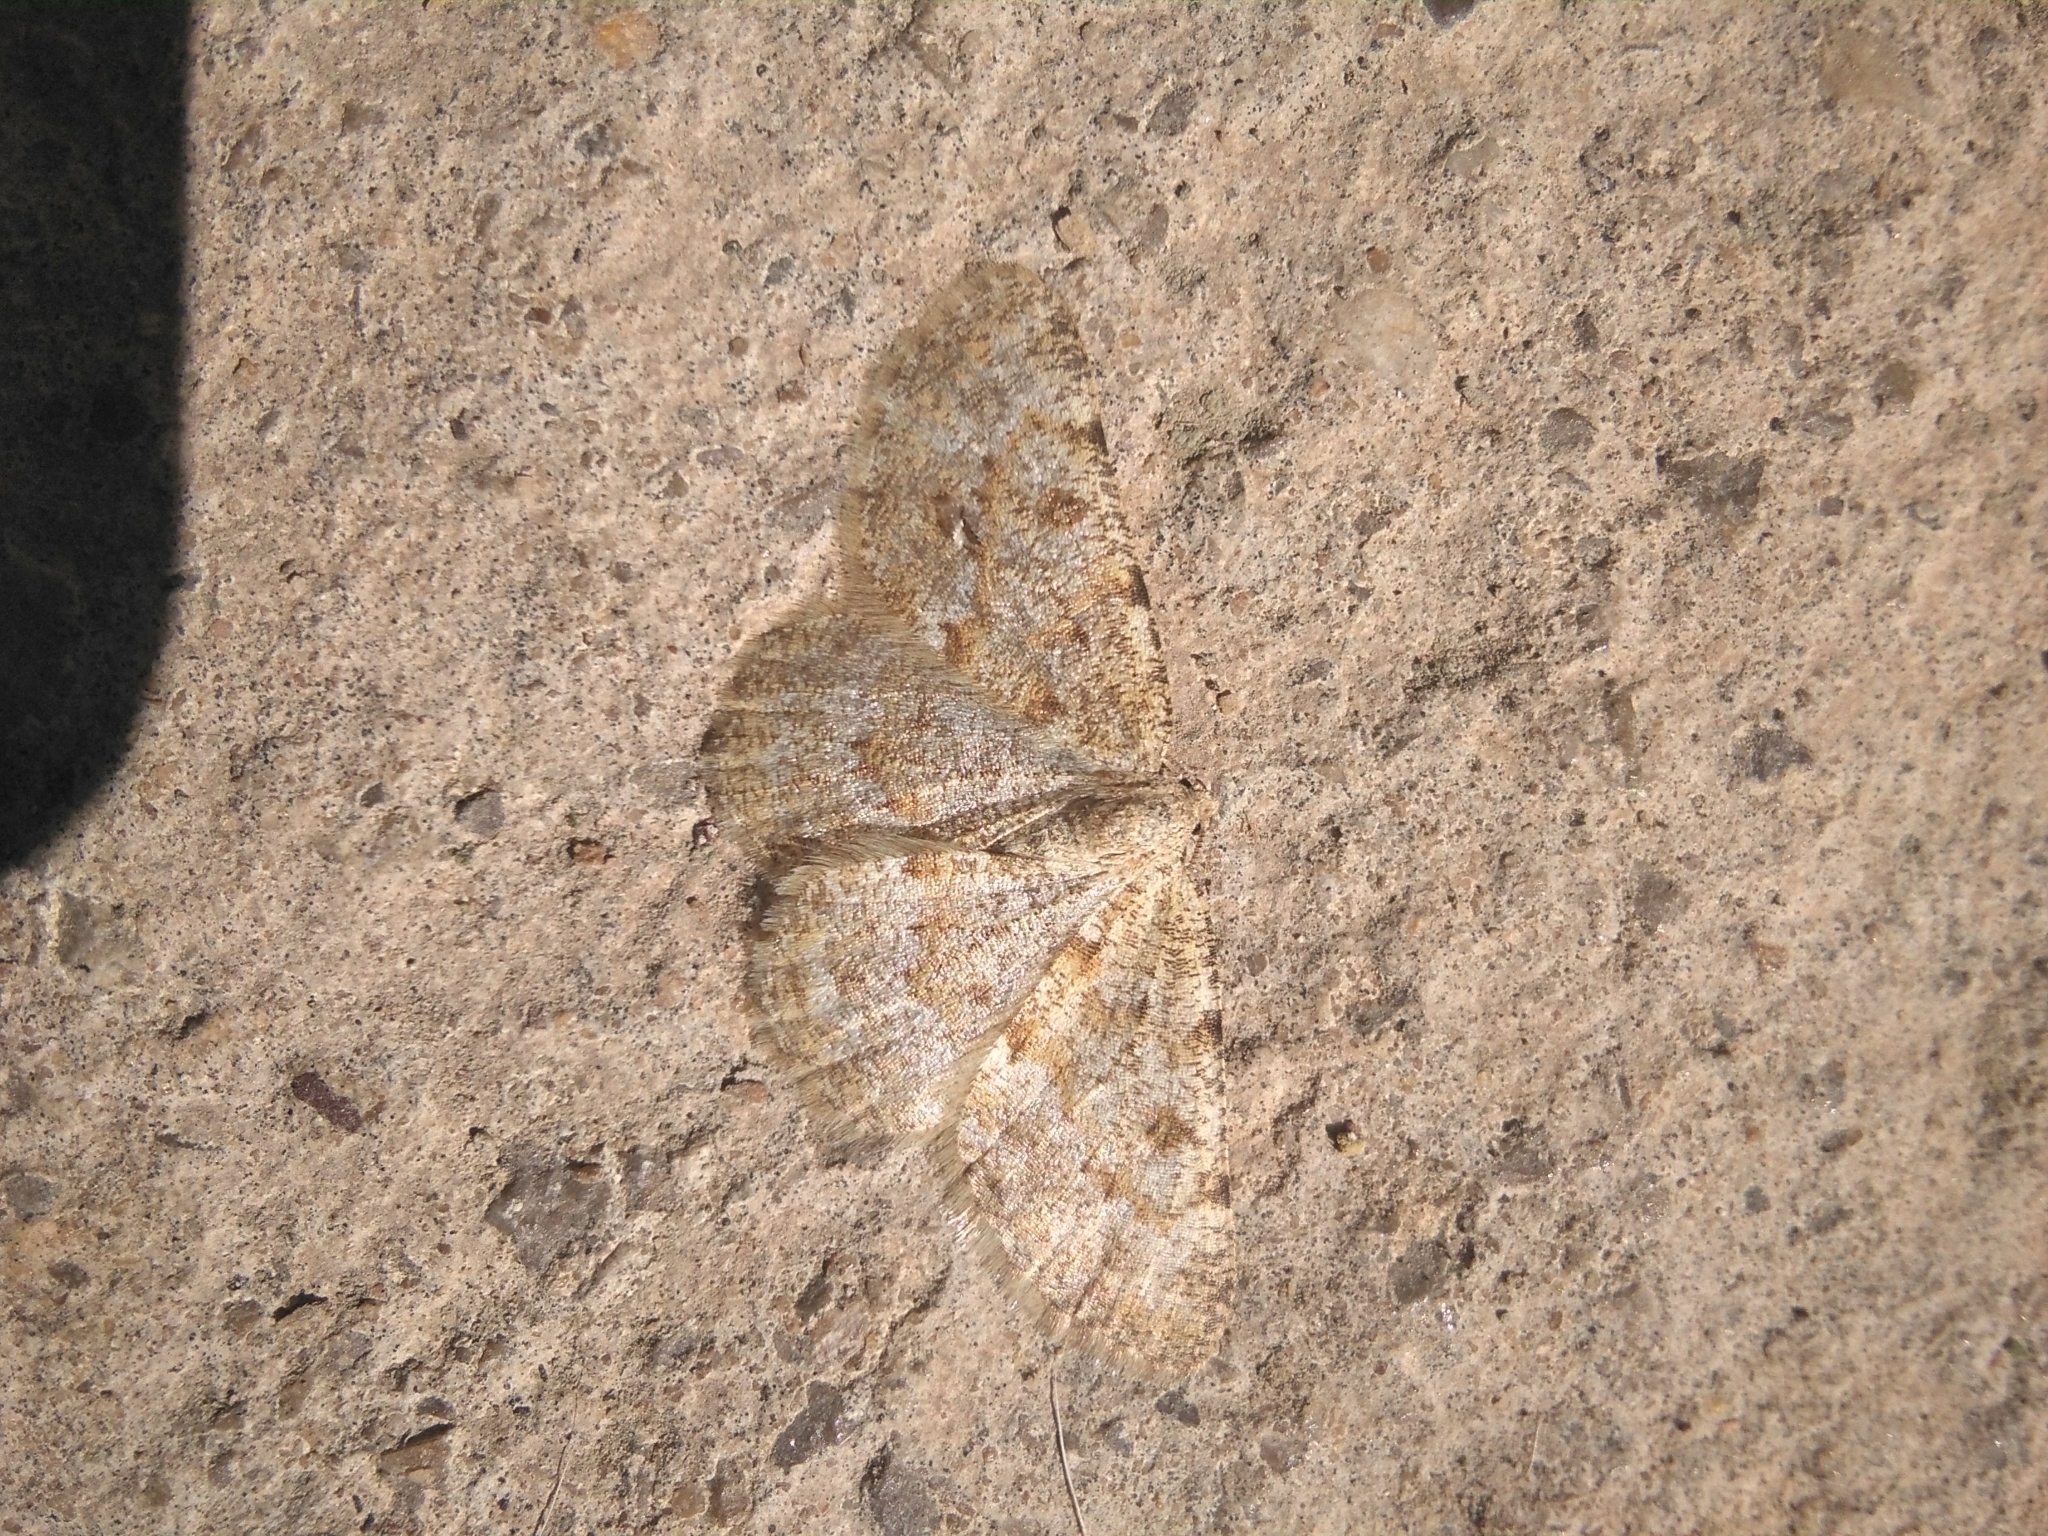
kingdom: Animalia
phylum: Arthropoda
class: Insecta
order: Lepidoptera
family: Geometridae
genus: Charissa
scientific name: Charissa mucidaria
